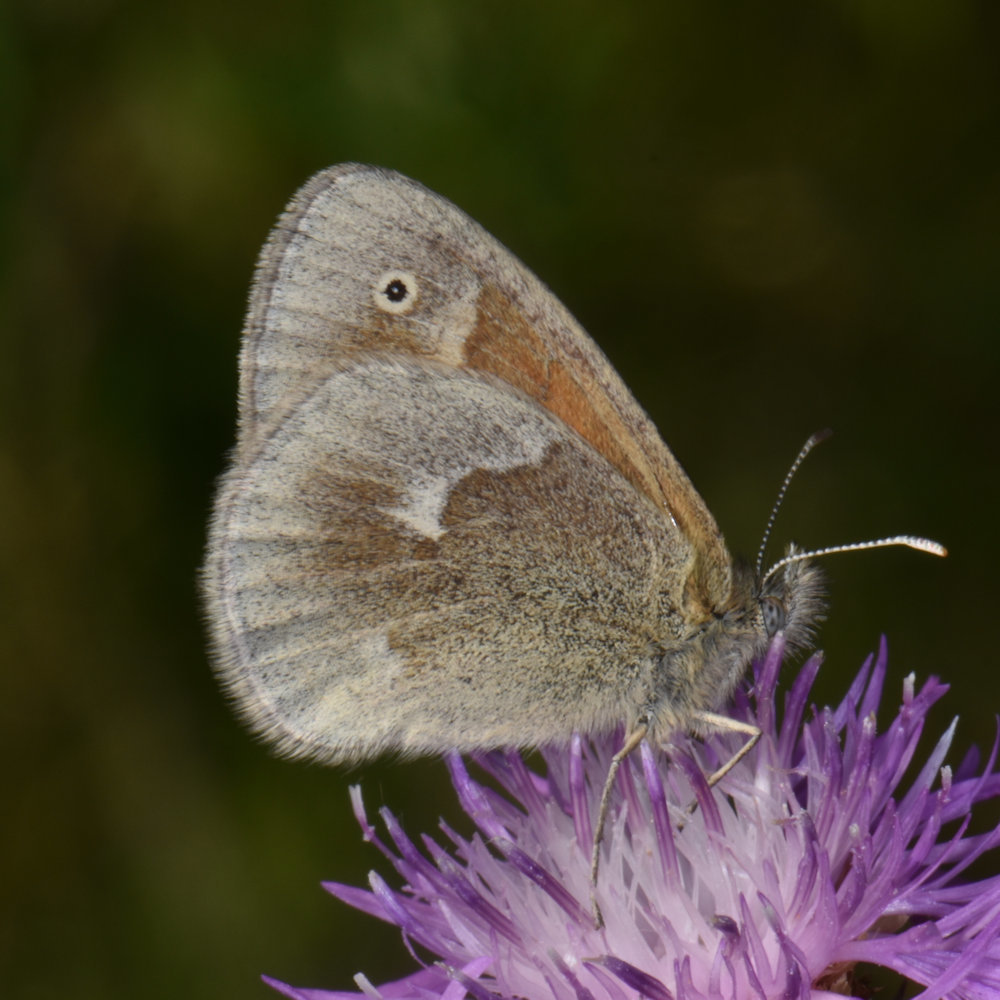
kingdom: Animalia
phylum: Arthropoda
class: Insecta
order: Lepidoptera
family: Nymphalidae
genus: Coenonympha
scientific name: Coenonympha california
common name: Common ringlet
